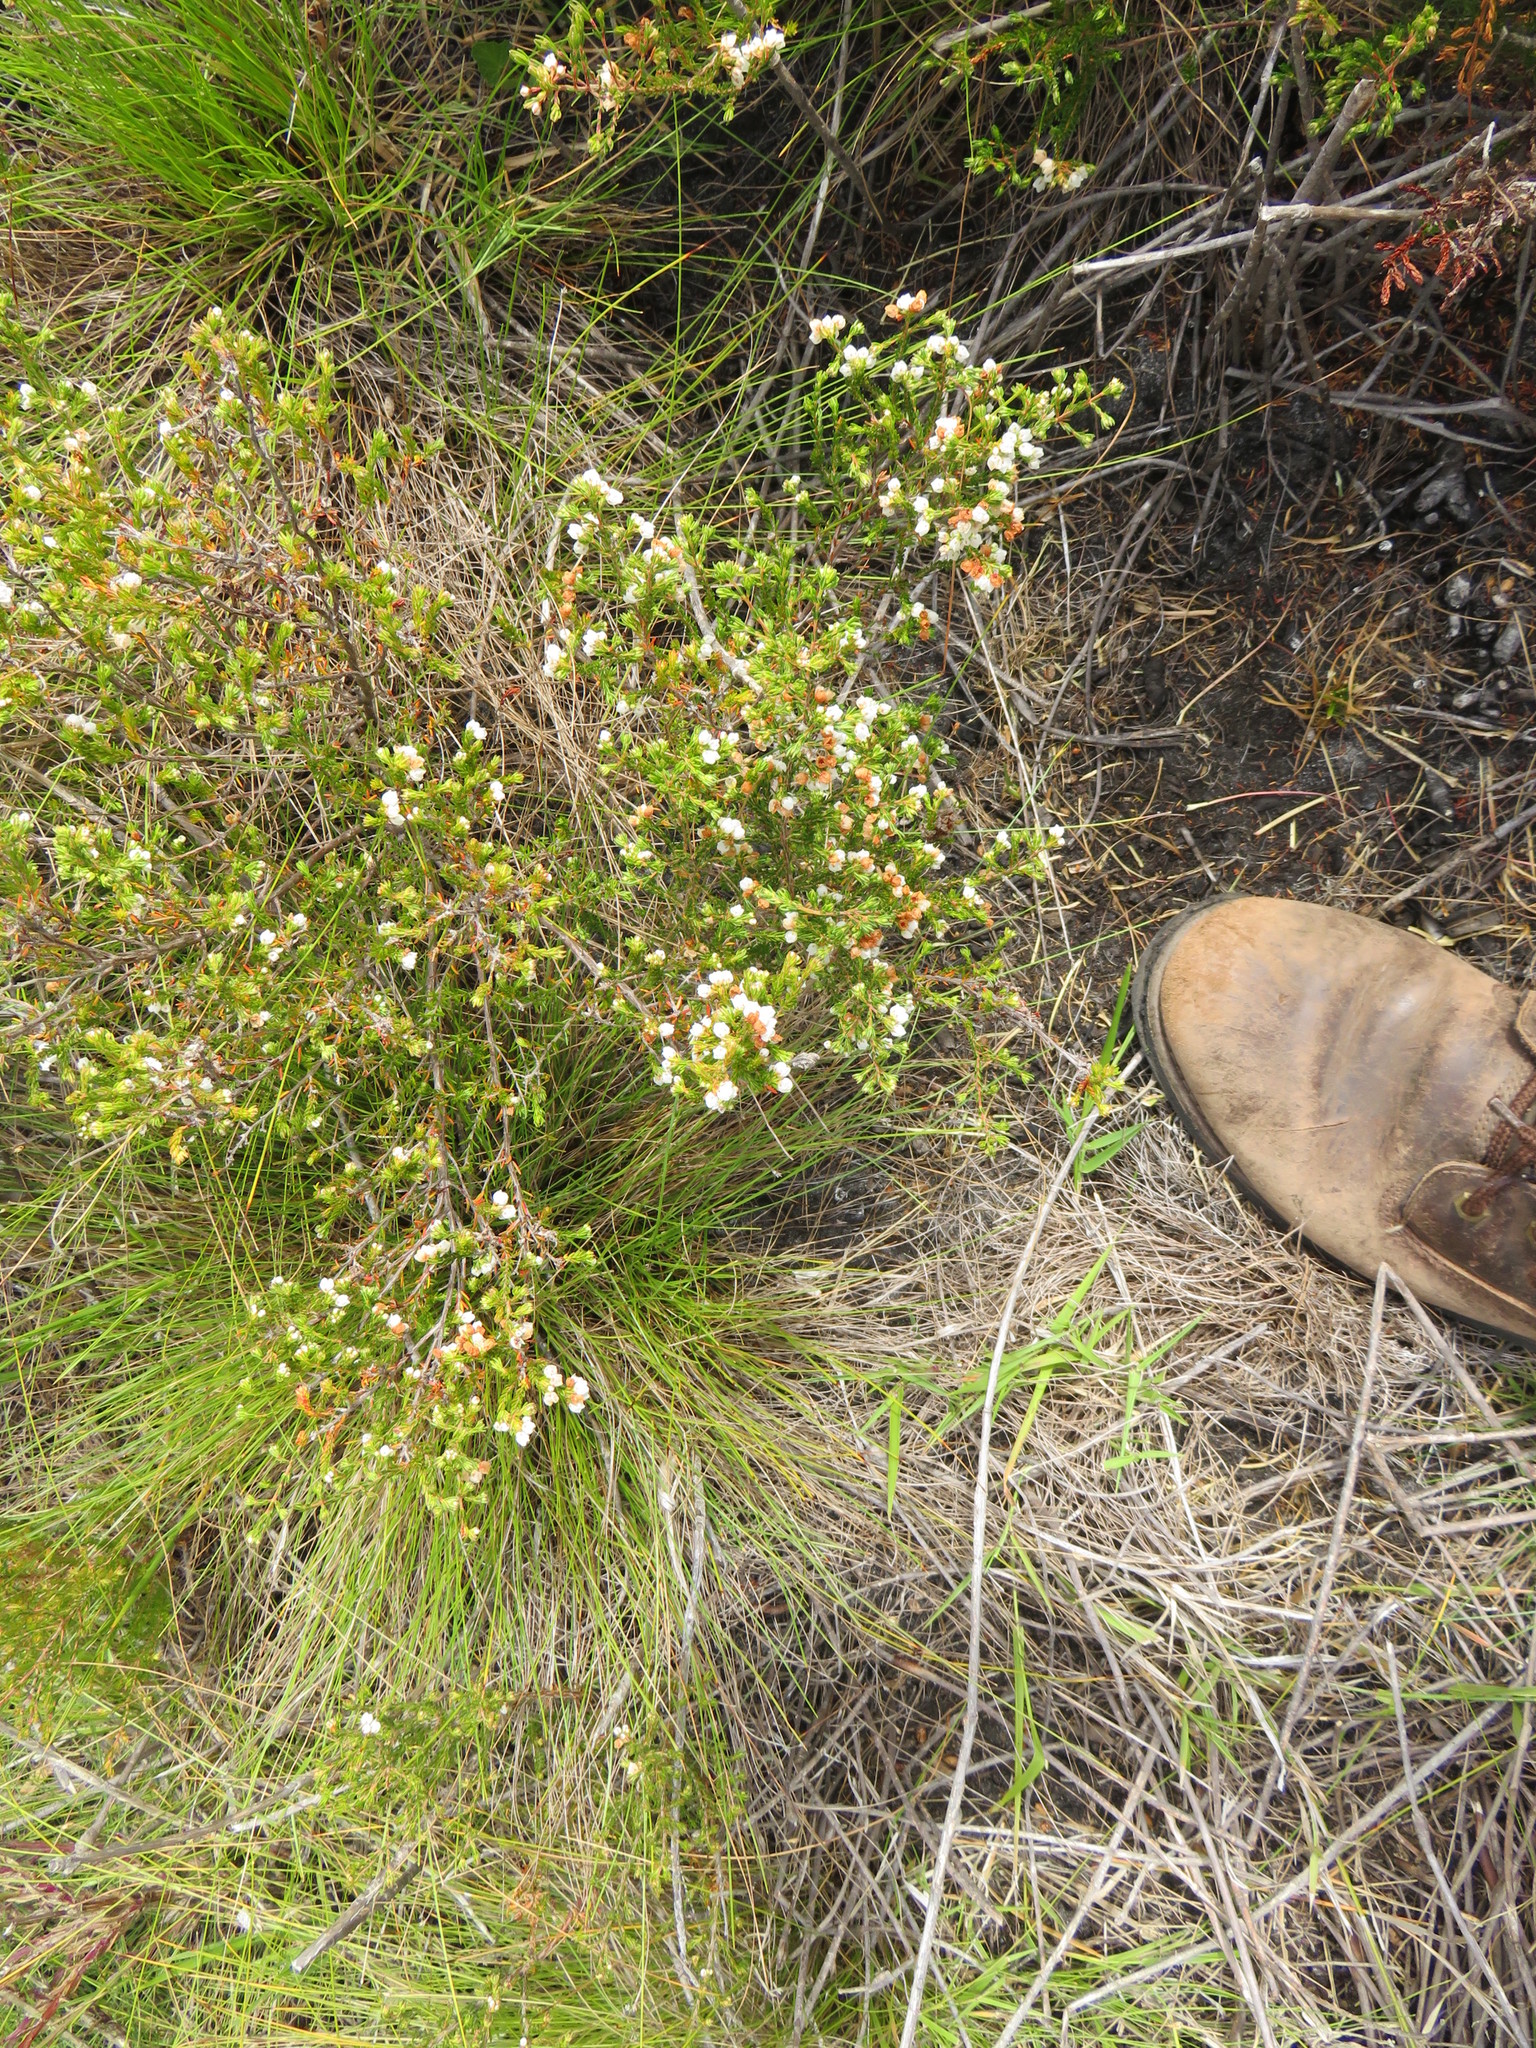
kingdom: Plantae
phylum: Tracheophyta
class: Magnoliopsida
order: Ericales
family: Ericaceae
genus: Erica
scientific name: Erica capensis
